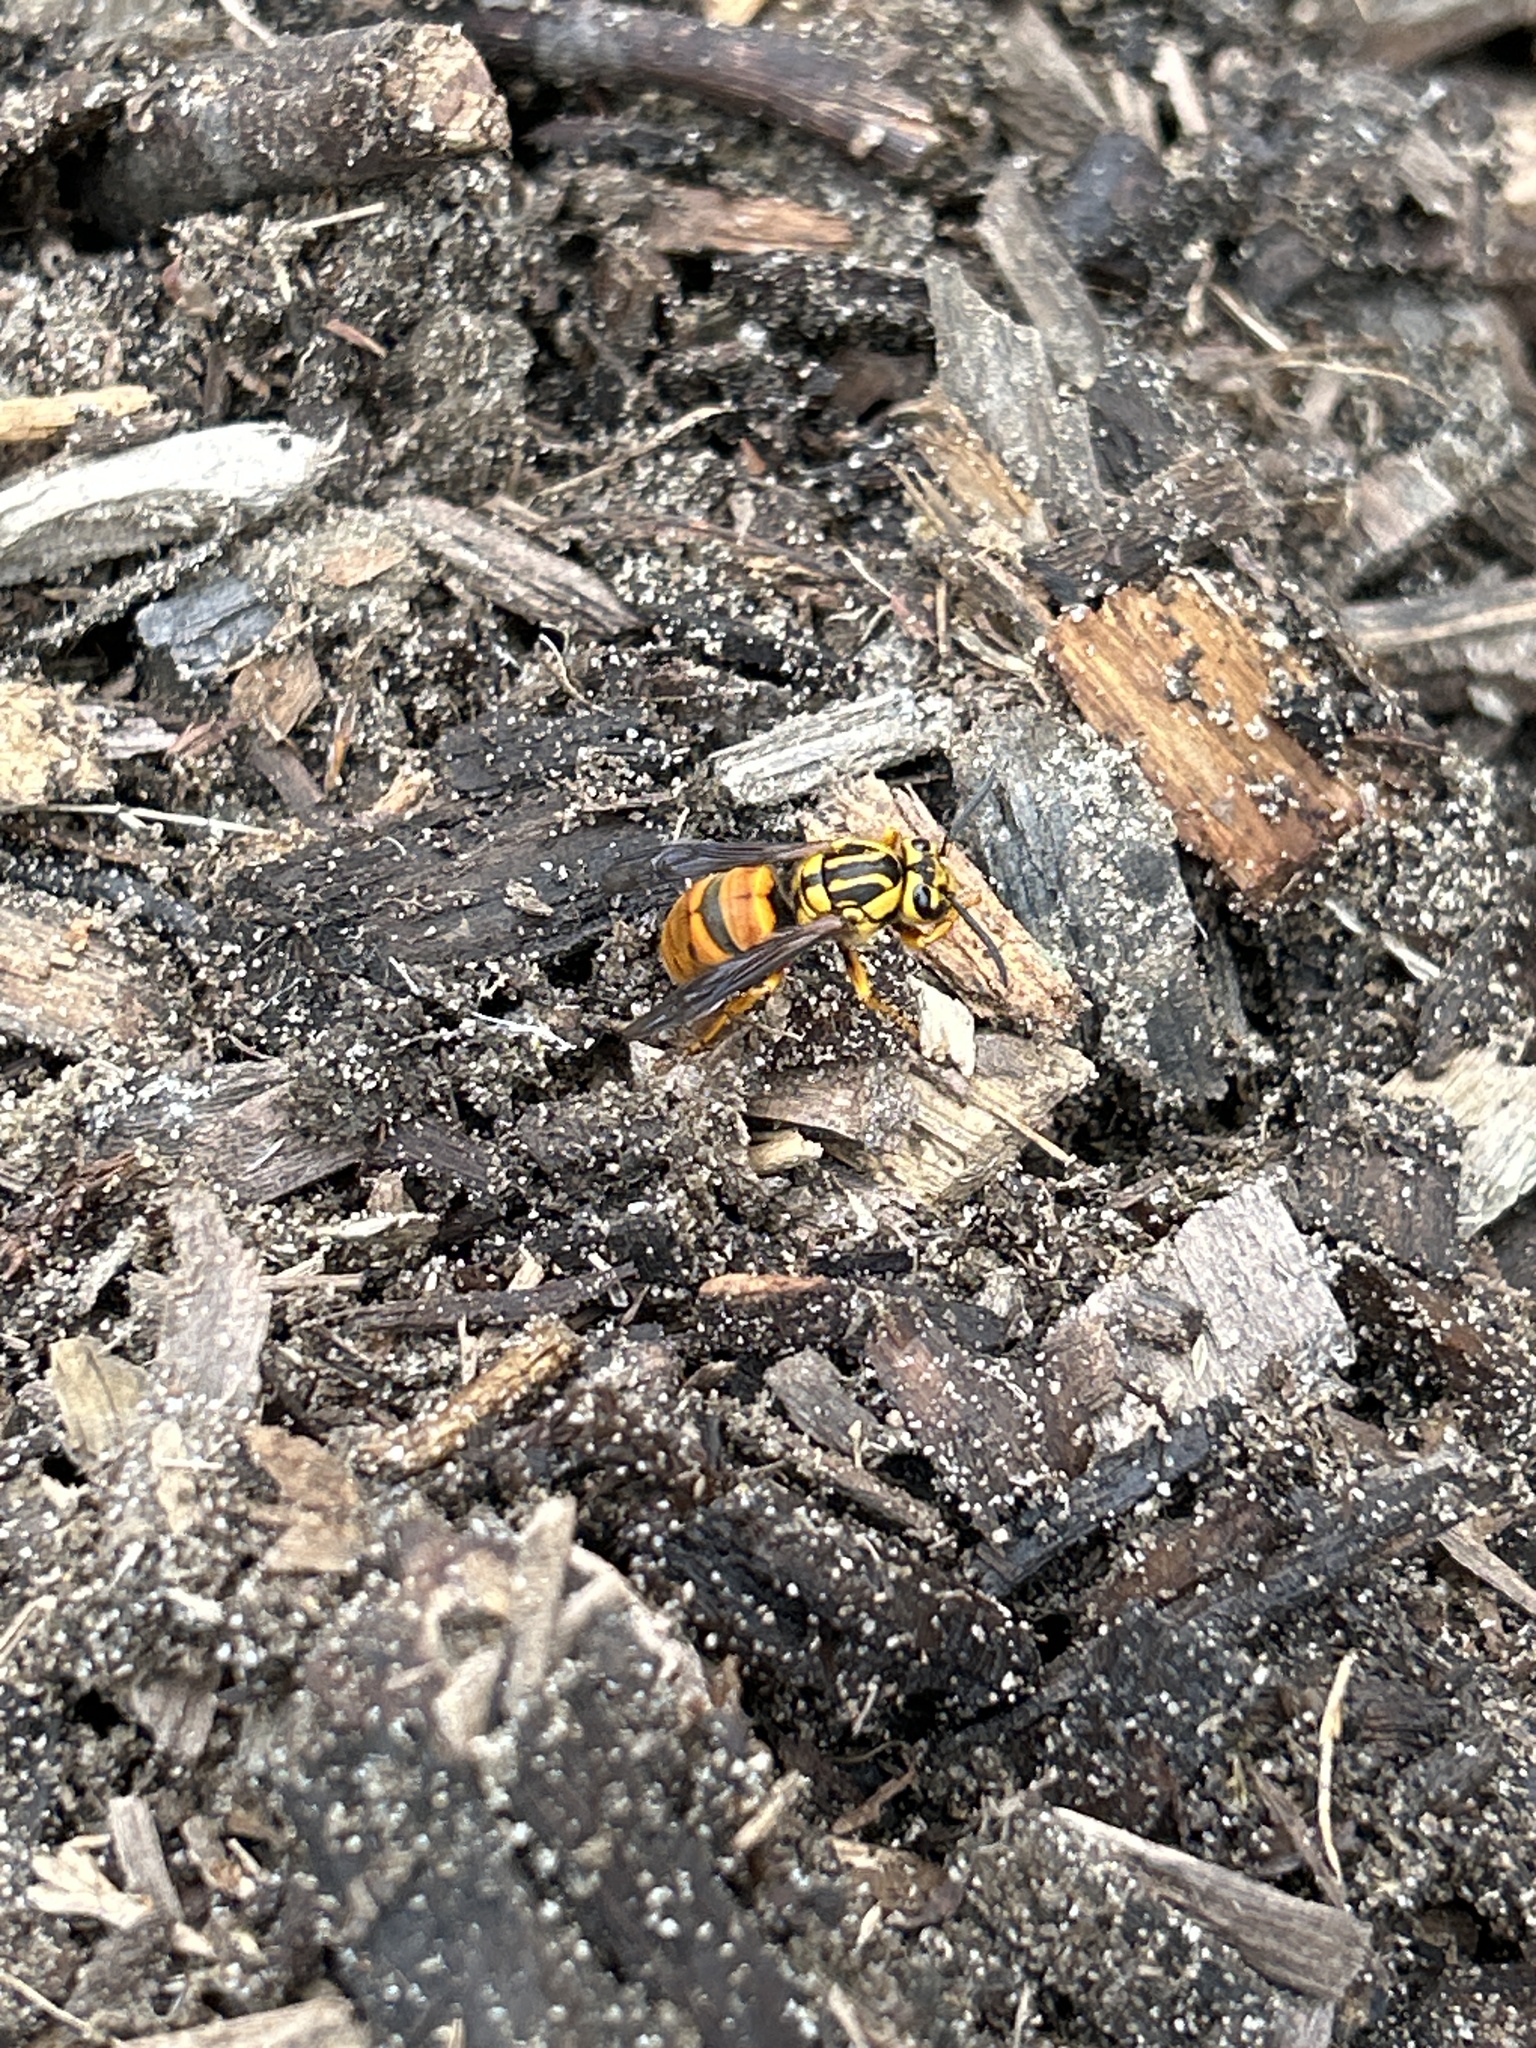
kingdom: Animalia
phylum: Arthropoda
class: Insecta
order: Hymenoptera
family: Vespidae
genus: Vespula
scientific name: Vespula squamosa
